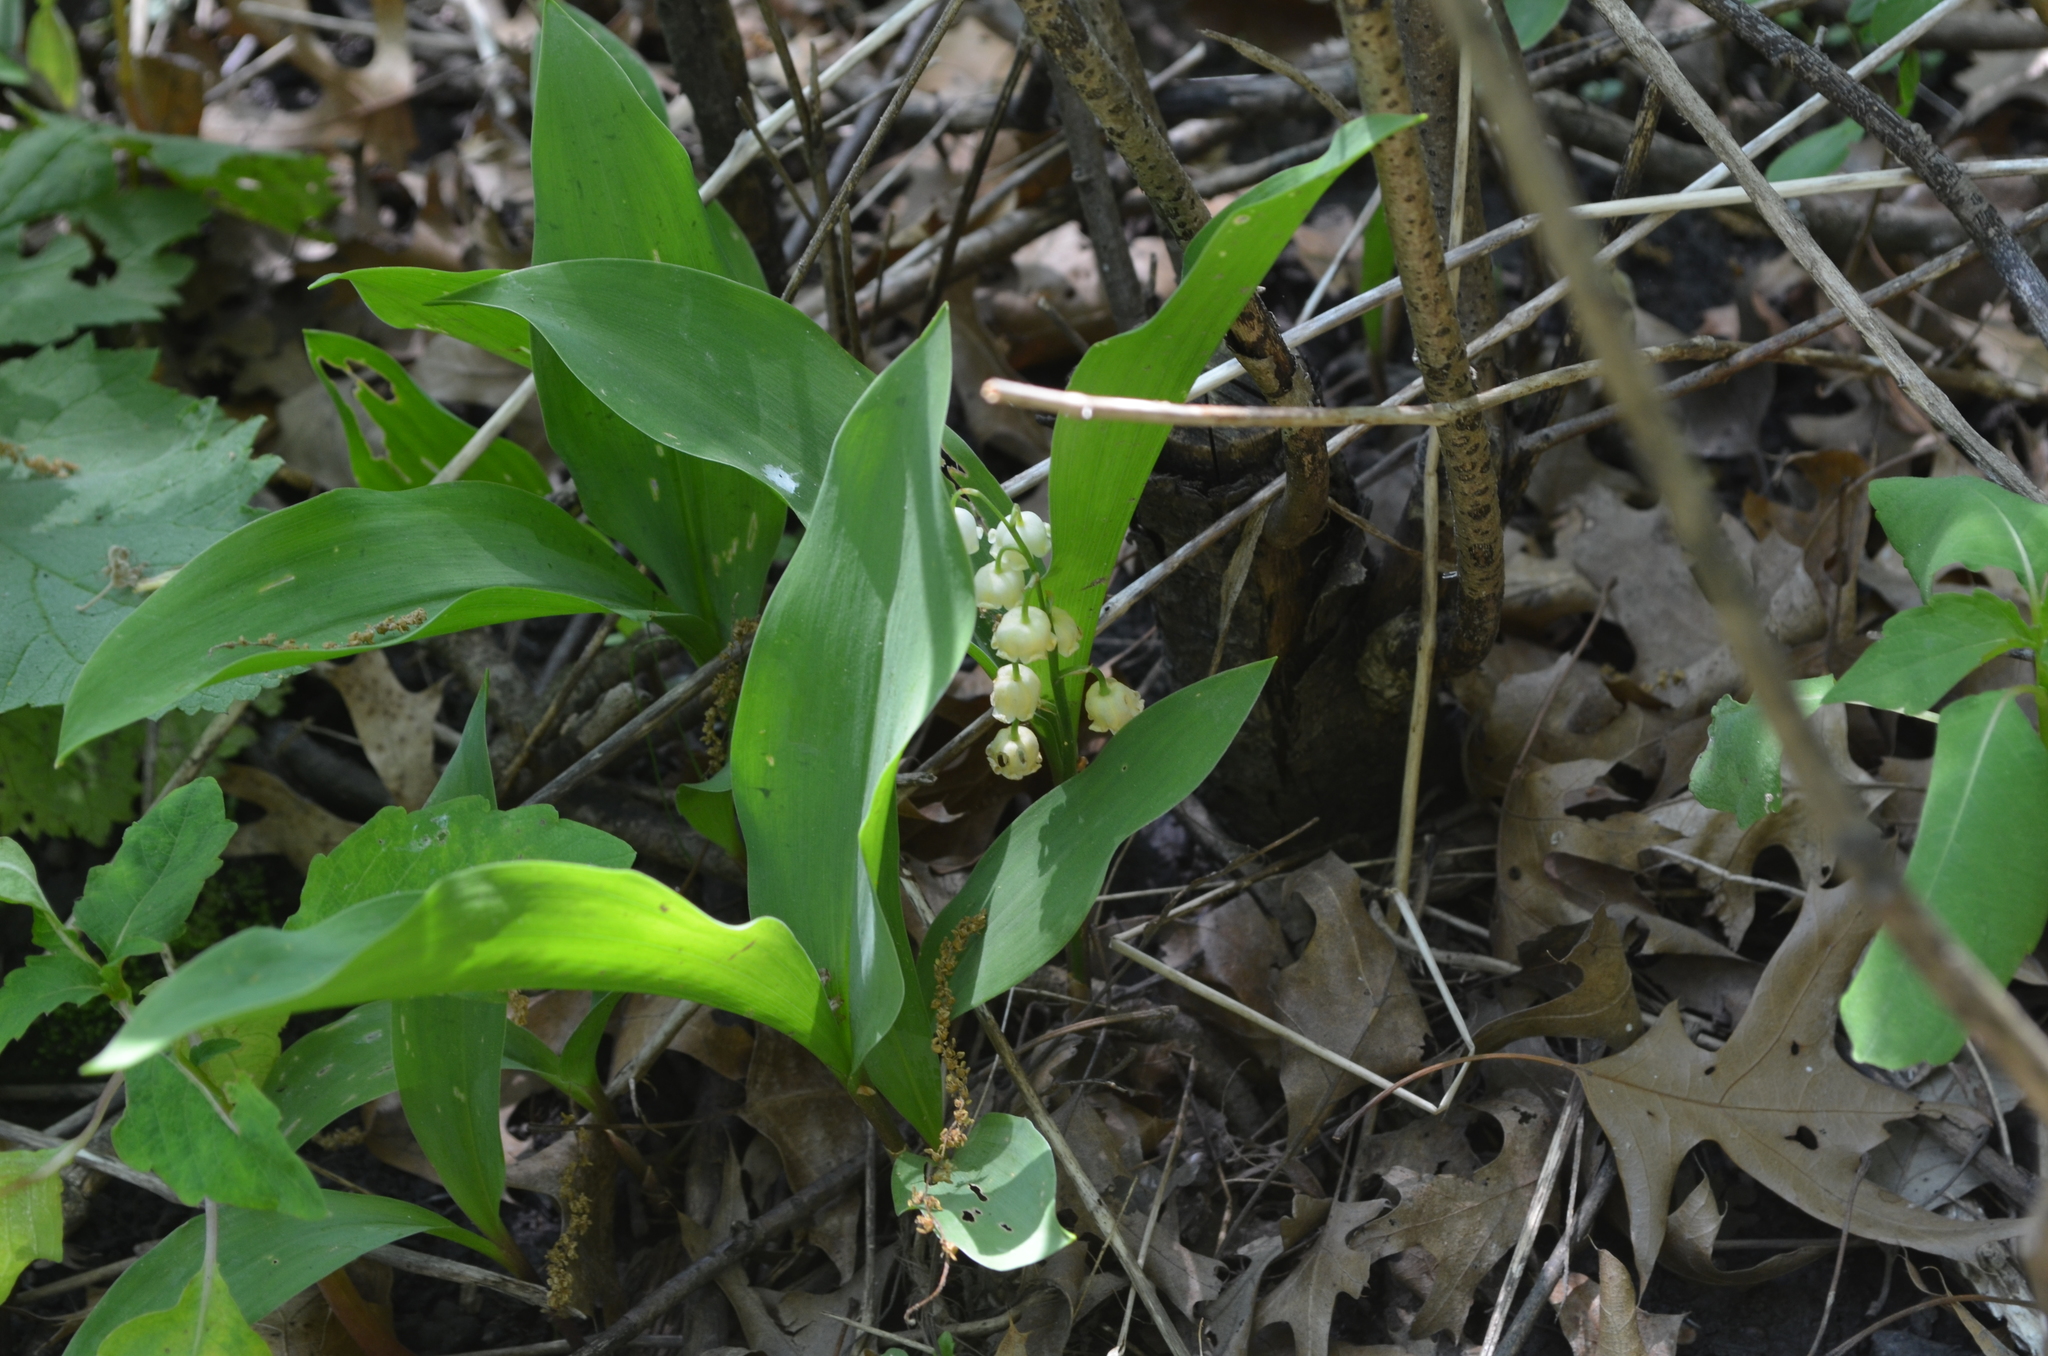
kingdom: Plantae
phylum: Tracheophyta
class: Liliopsida
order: Asparagales
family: Asparagaceae
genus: Convallaria
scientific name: Convallaria majalis
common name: Lily-of-the-valley
